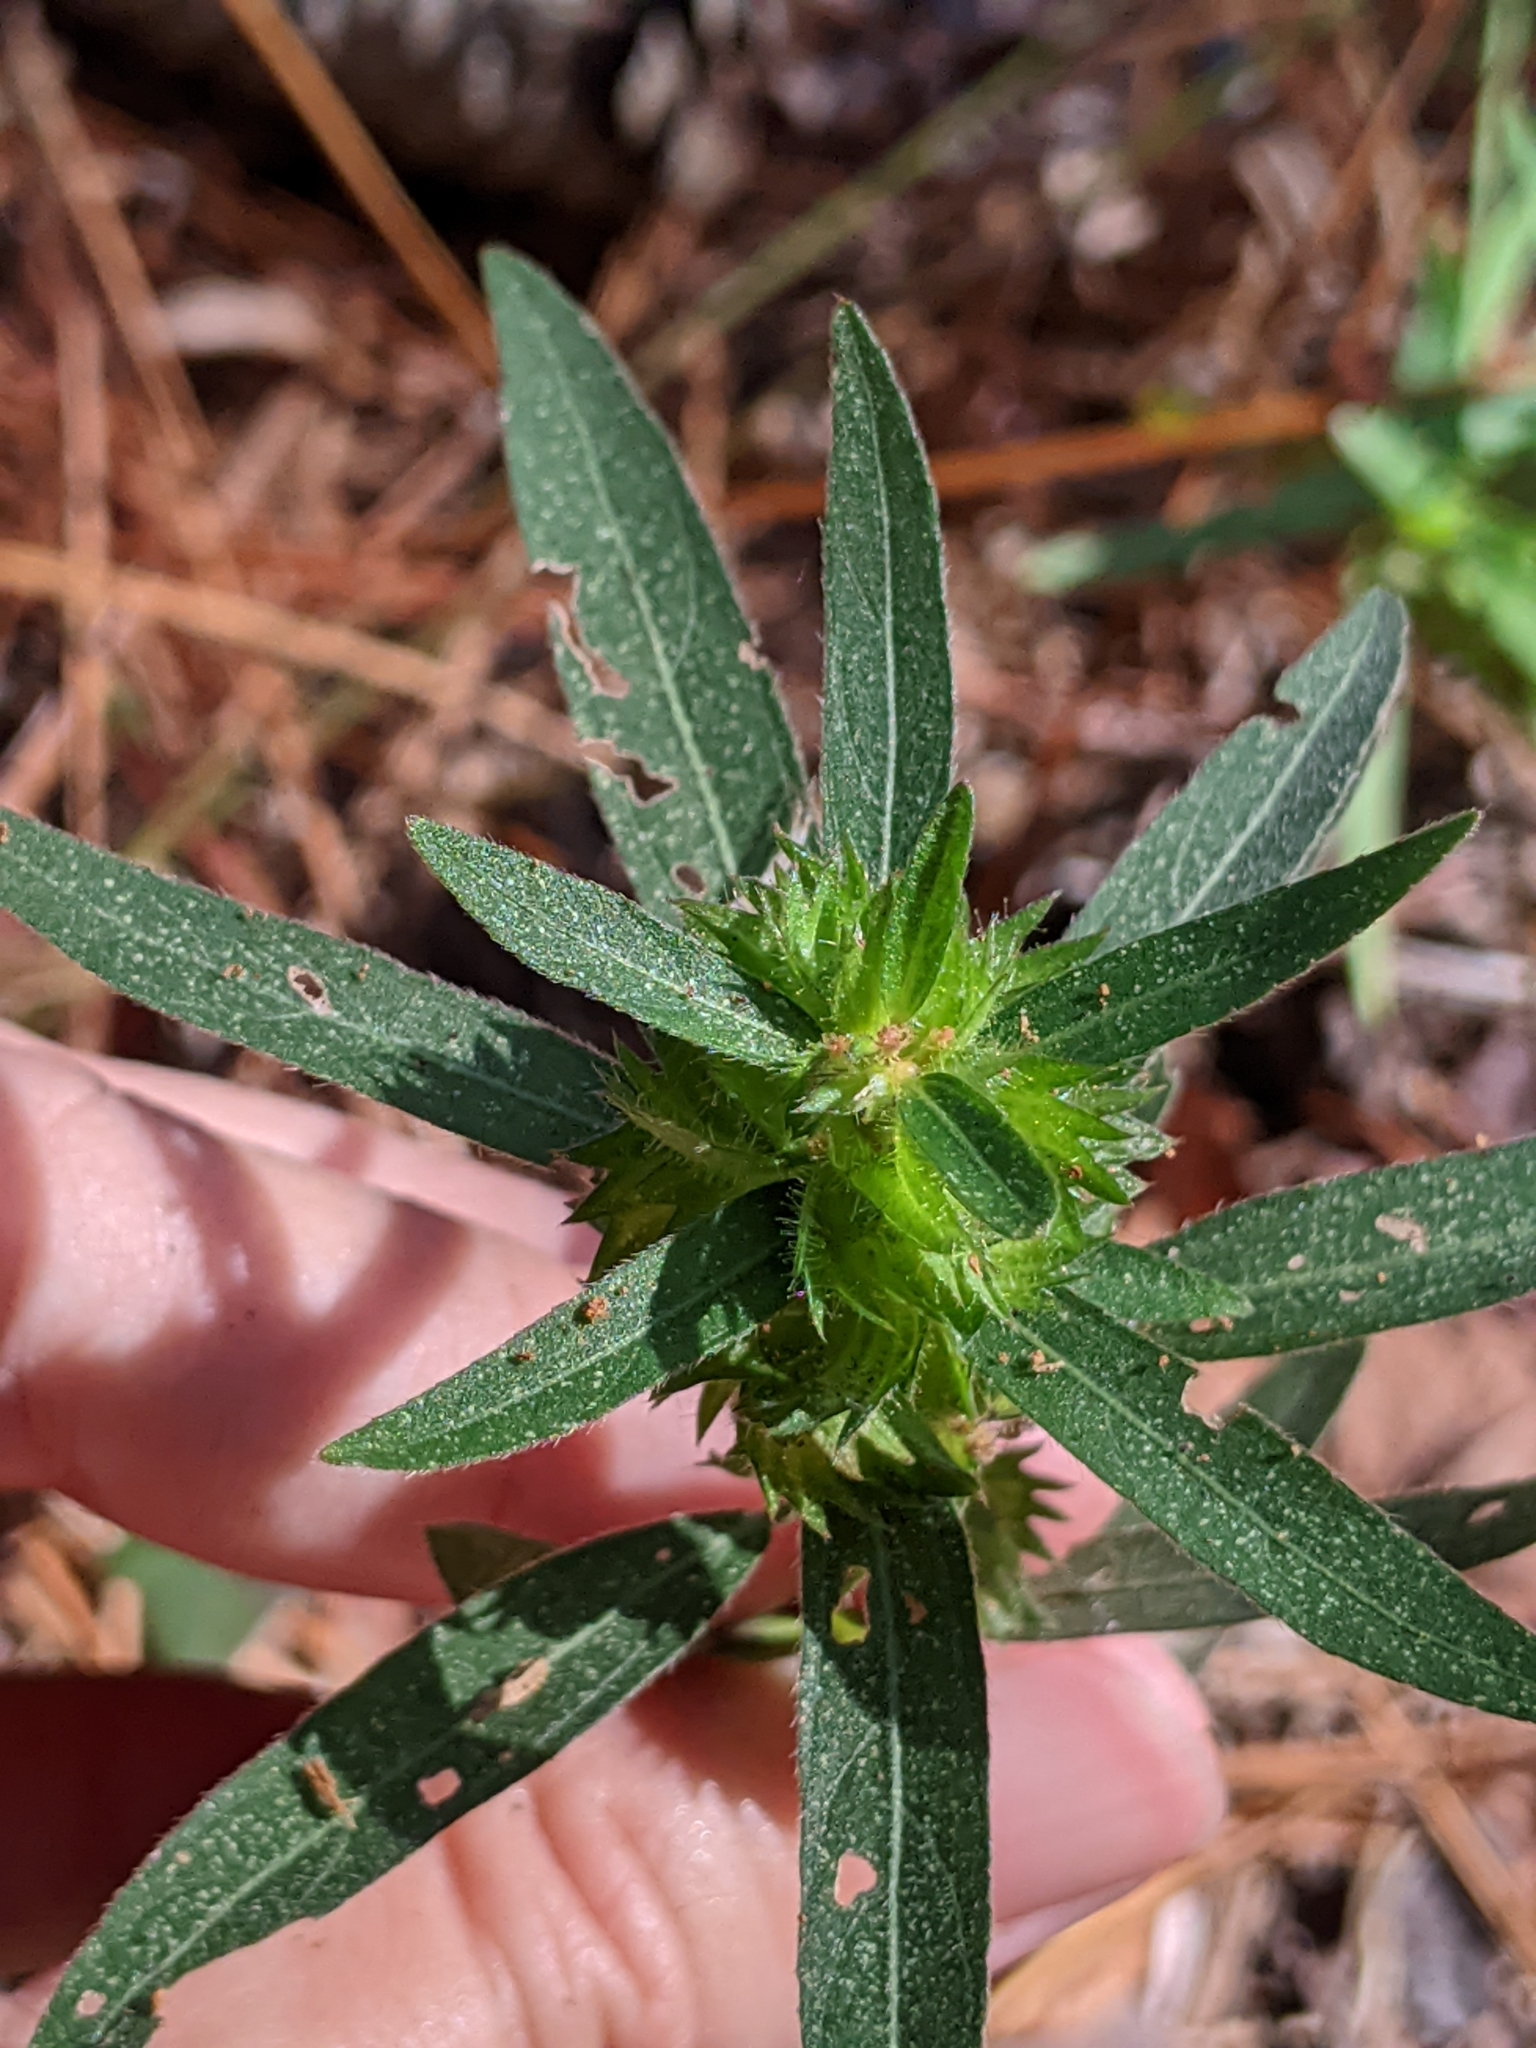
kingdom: Plantae
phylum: Tracheophyta
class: Magnoliopsida
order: Malpighiales
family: Euphorbiaceae
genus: Acalypha
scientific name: Acalypha gracilens
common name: Slender three-seeded mercury
